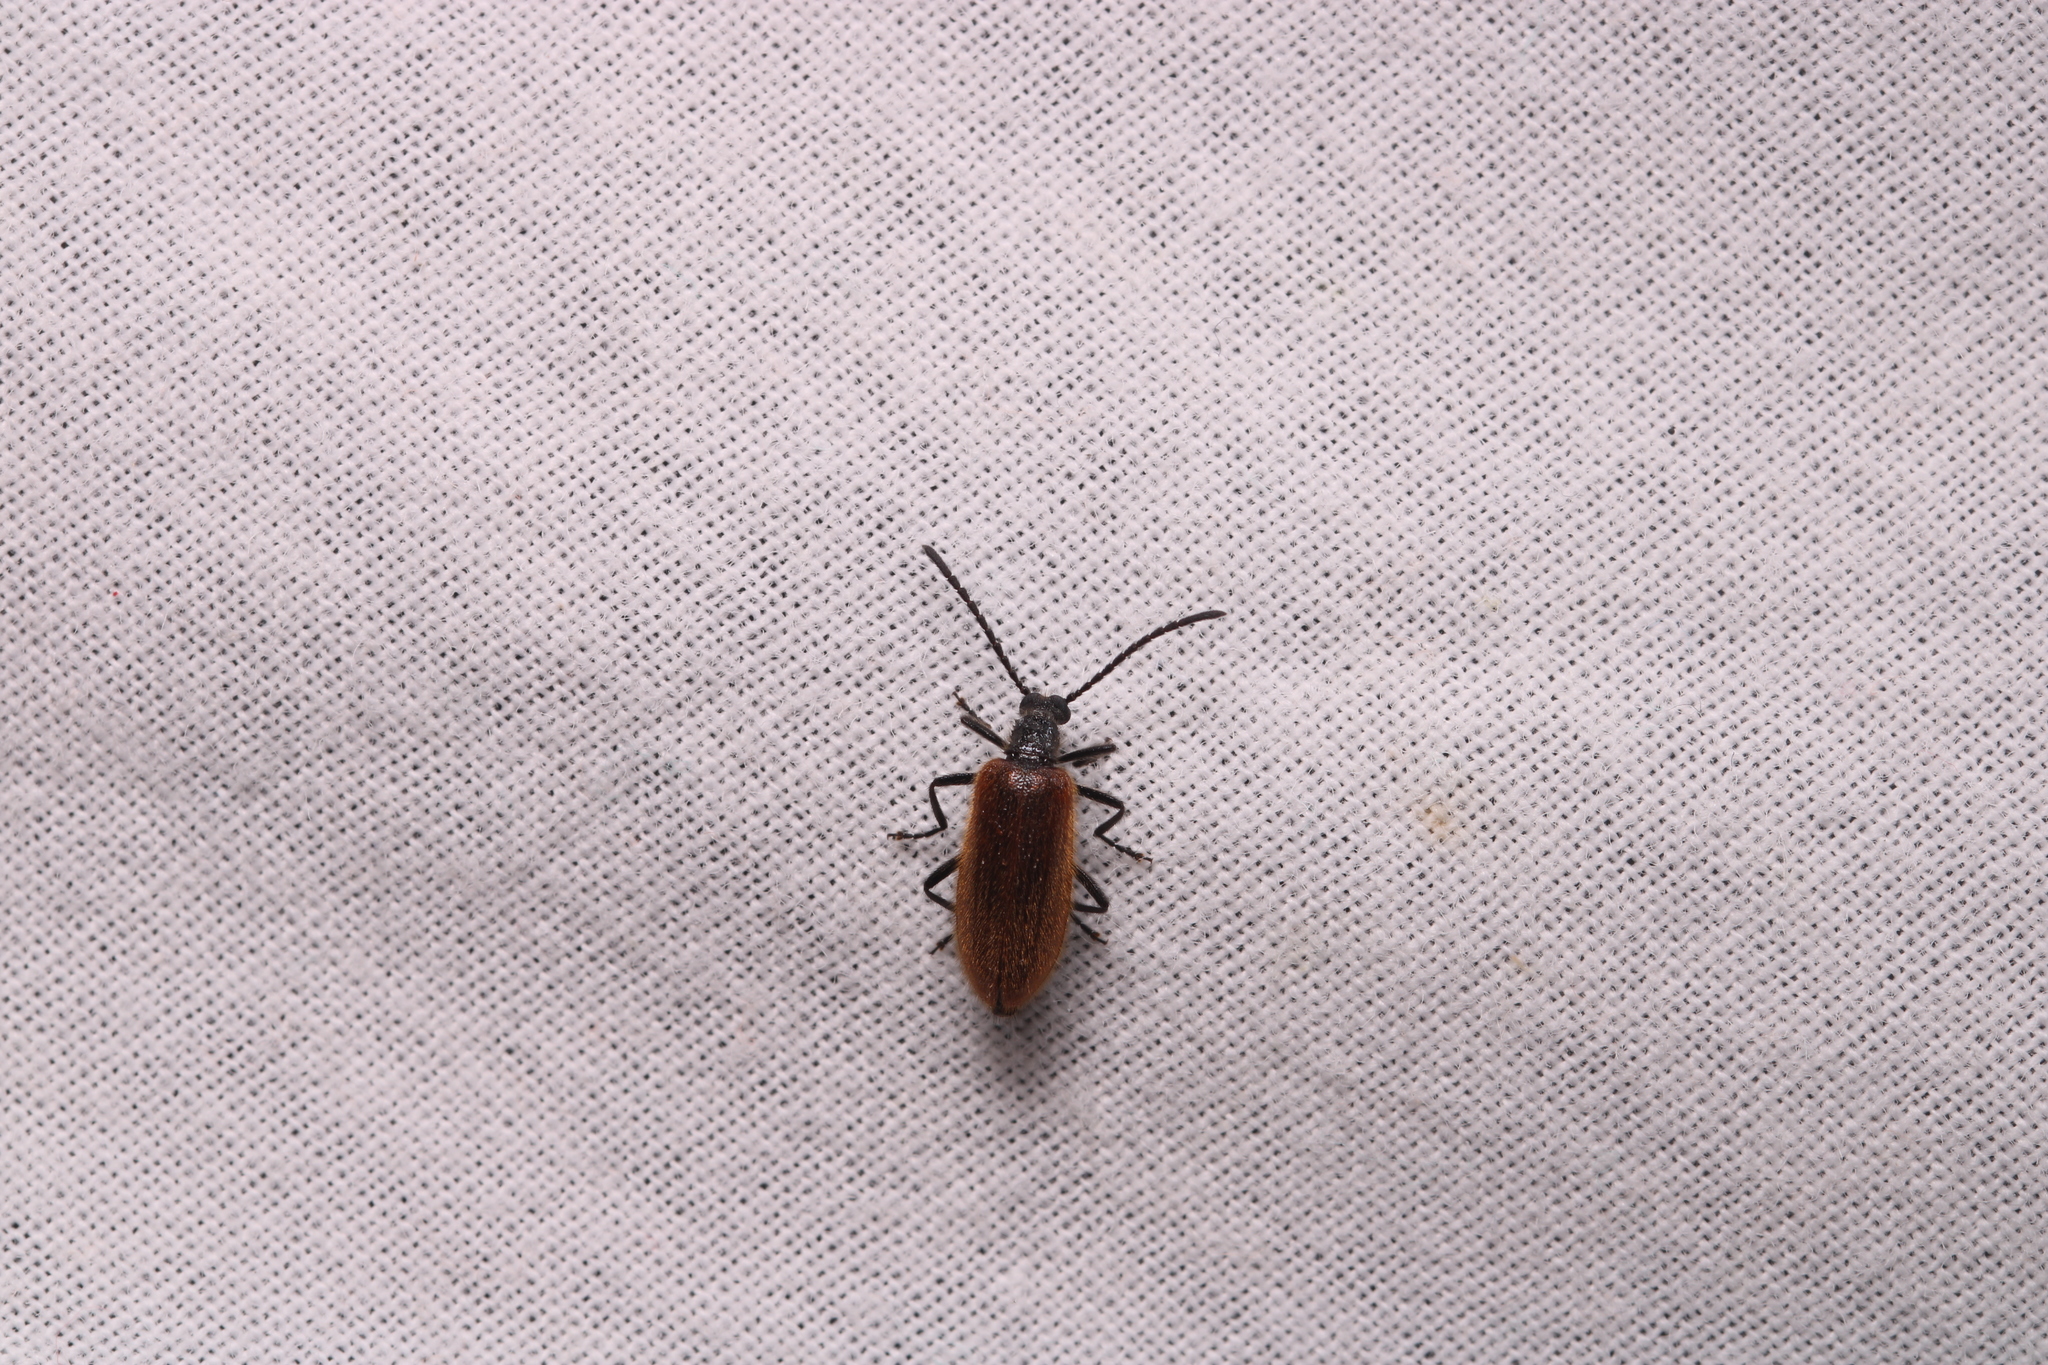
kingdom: Animalia
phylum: Arthropoda
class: Insecta
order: Coleoptera
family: Tenebrionidae
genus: Lagria
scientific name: Lagria hirta
